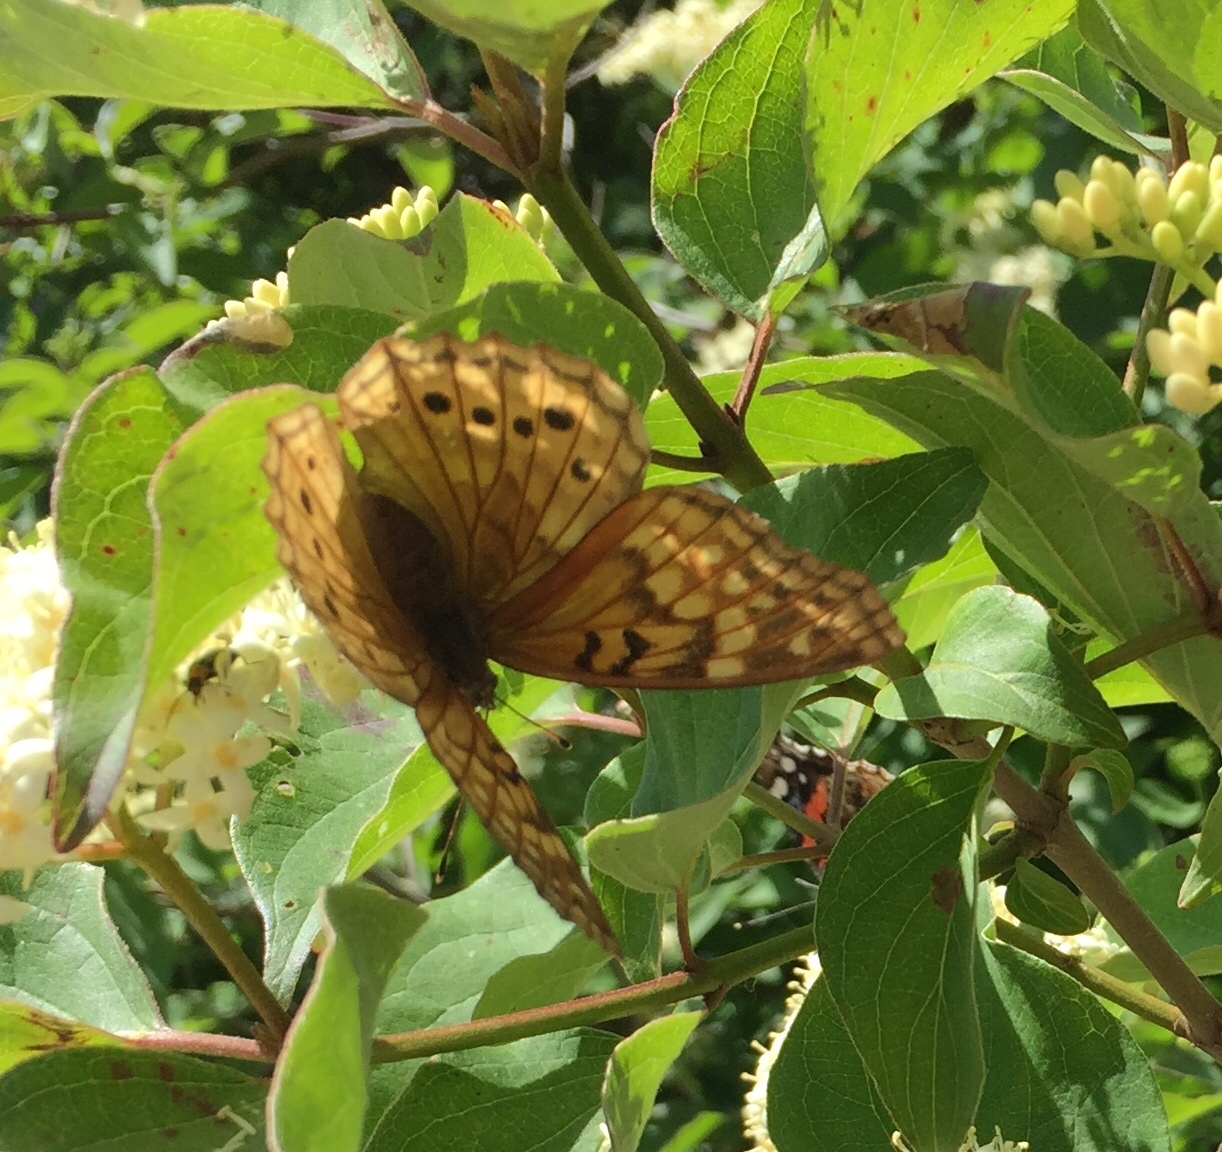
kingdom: Animalia
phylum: Arthropoda
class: Insecta
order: Lepidoptera
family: Nymphalidae
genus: Asterocampa
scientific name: Asterocampa clyton
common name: Tawny emperor
